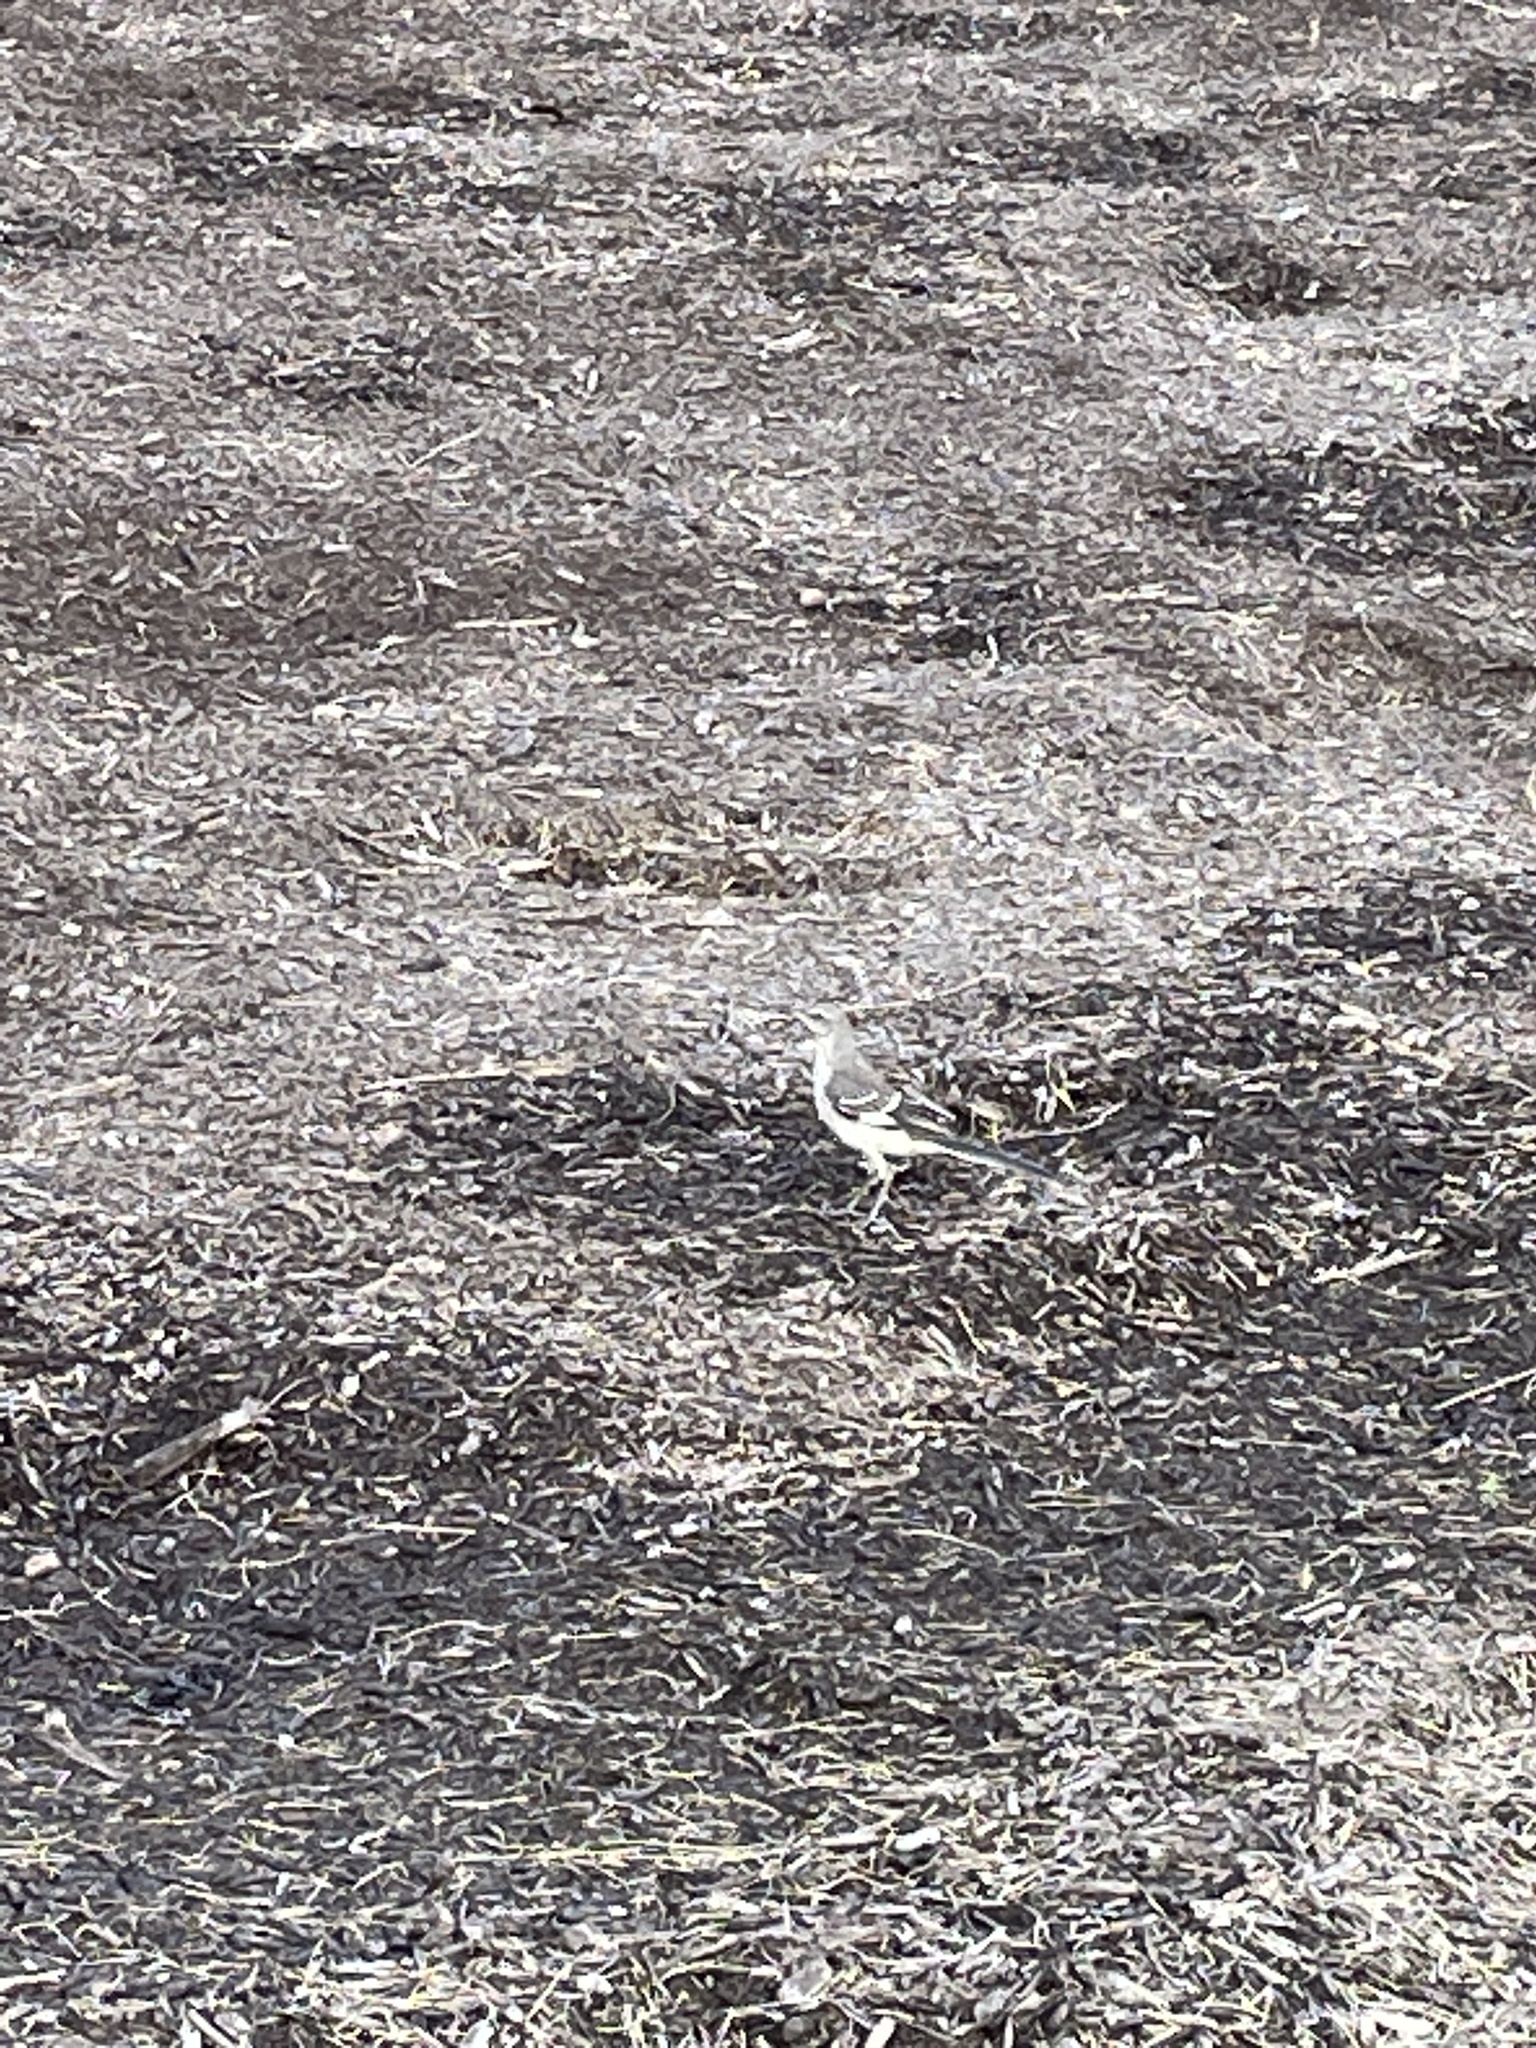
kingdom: Animalia
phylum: Chordata
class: Aves
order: Passeriformes
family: Mimidae
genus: Mimus
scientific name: Mimus polyglottos
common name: Northern mockingbird
